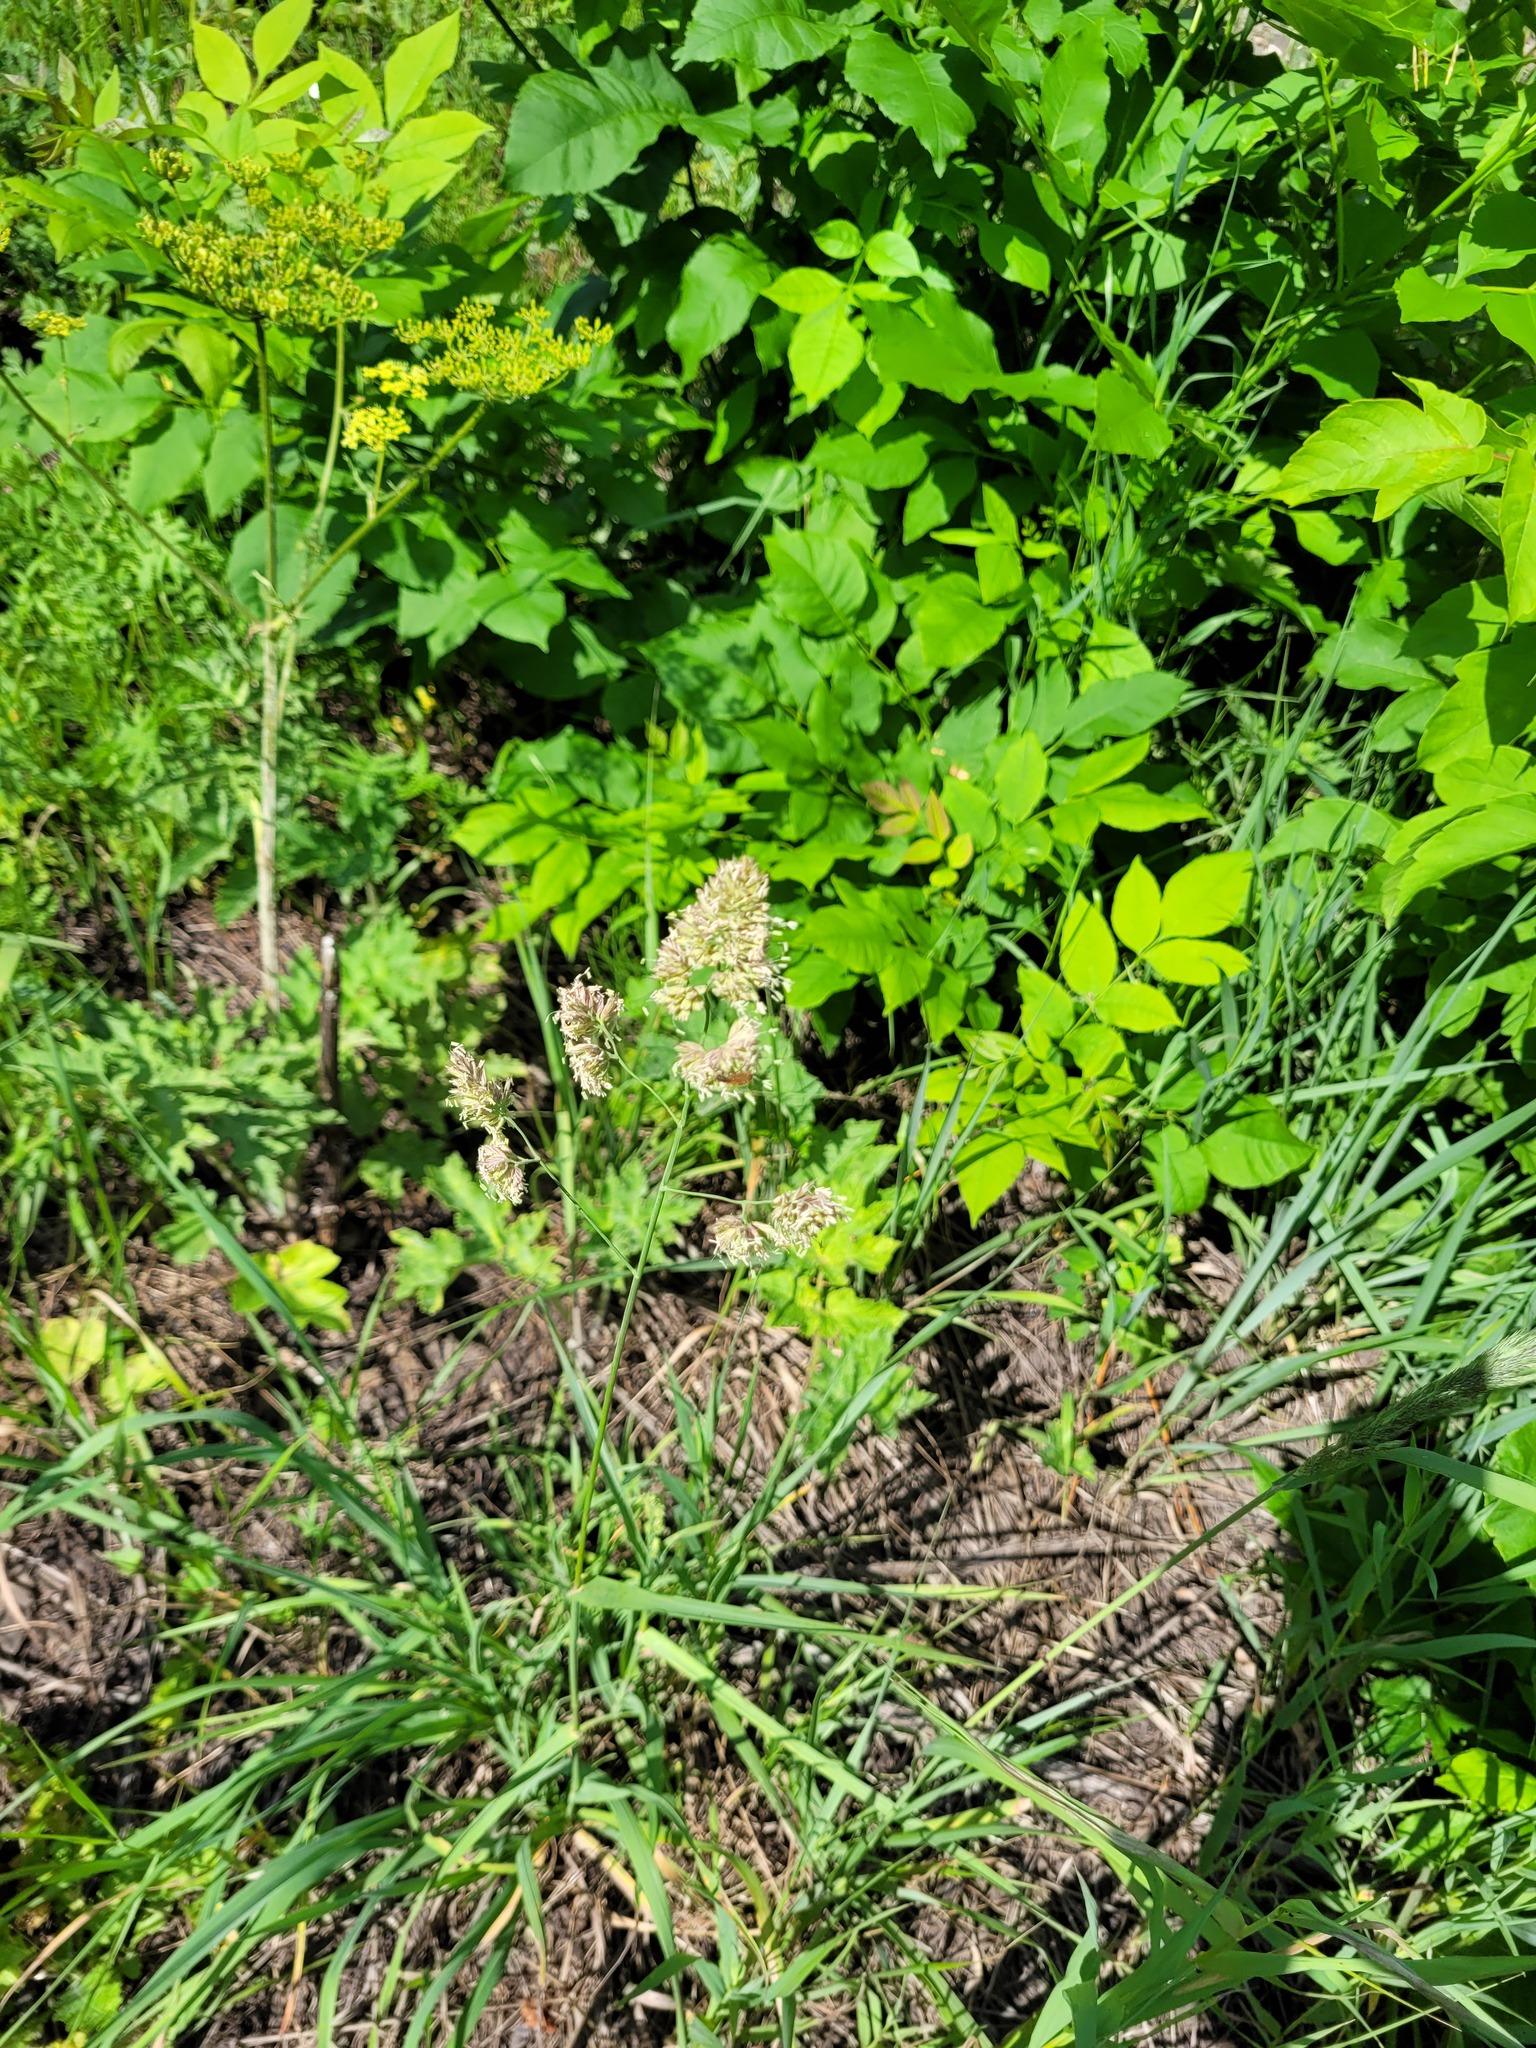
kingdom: Plantae
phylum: Tracheophyta
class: Liliopsida
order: Poales
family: Poaceae
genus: Dactylis
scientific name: Dactylis glomerata
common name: Orchardgrass
